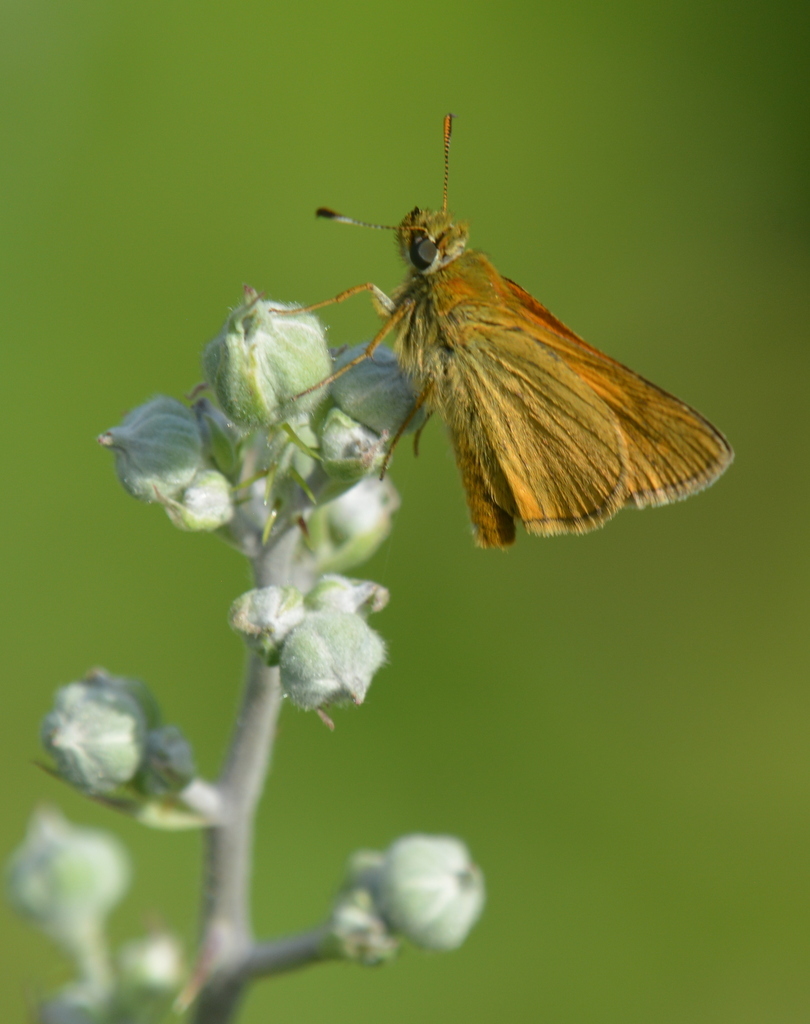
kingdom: Animalia
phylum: Arthropoda
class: Insecta
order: Lepidoptera
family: Hesperiidae
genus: Ochlodes
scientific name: Ochlodes venata
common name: Large skipper
